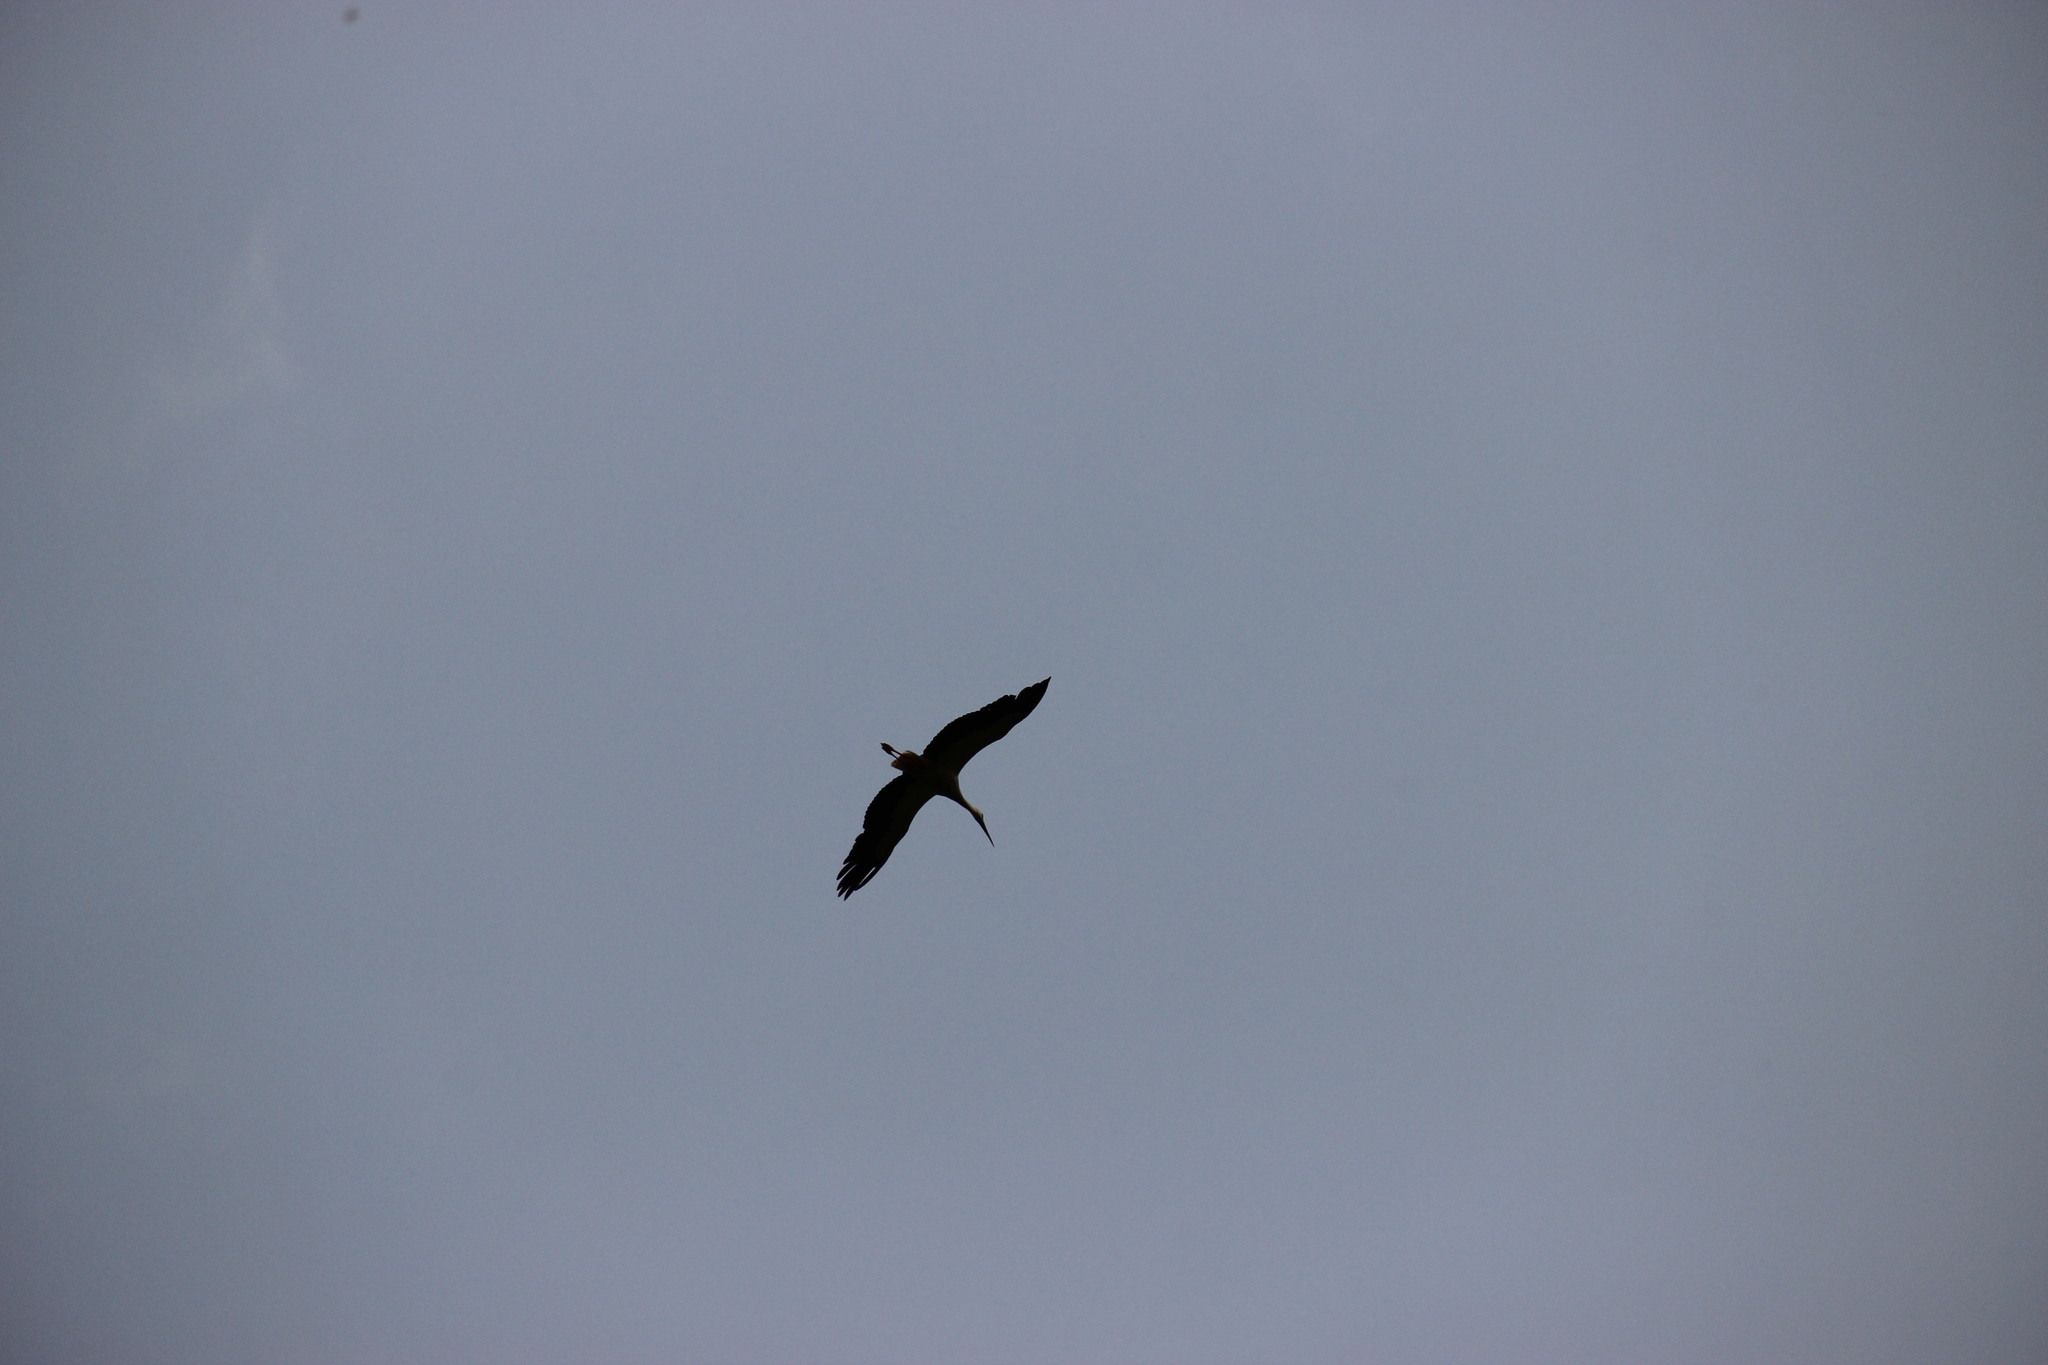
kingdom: Animalia
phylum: Chordata
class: Aves
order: Ciconiiformes
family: Ciconiidae
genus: Ciconia
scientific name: Ciconia ciconia
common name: White stork
